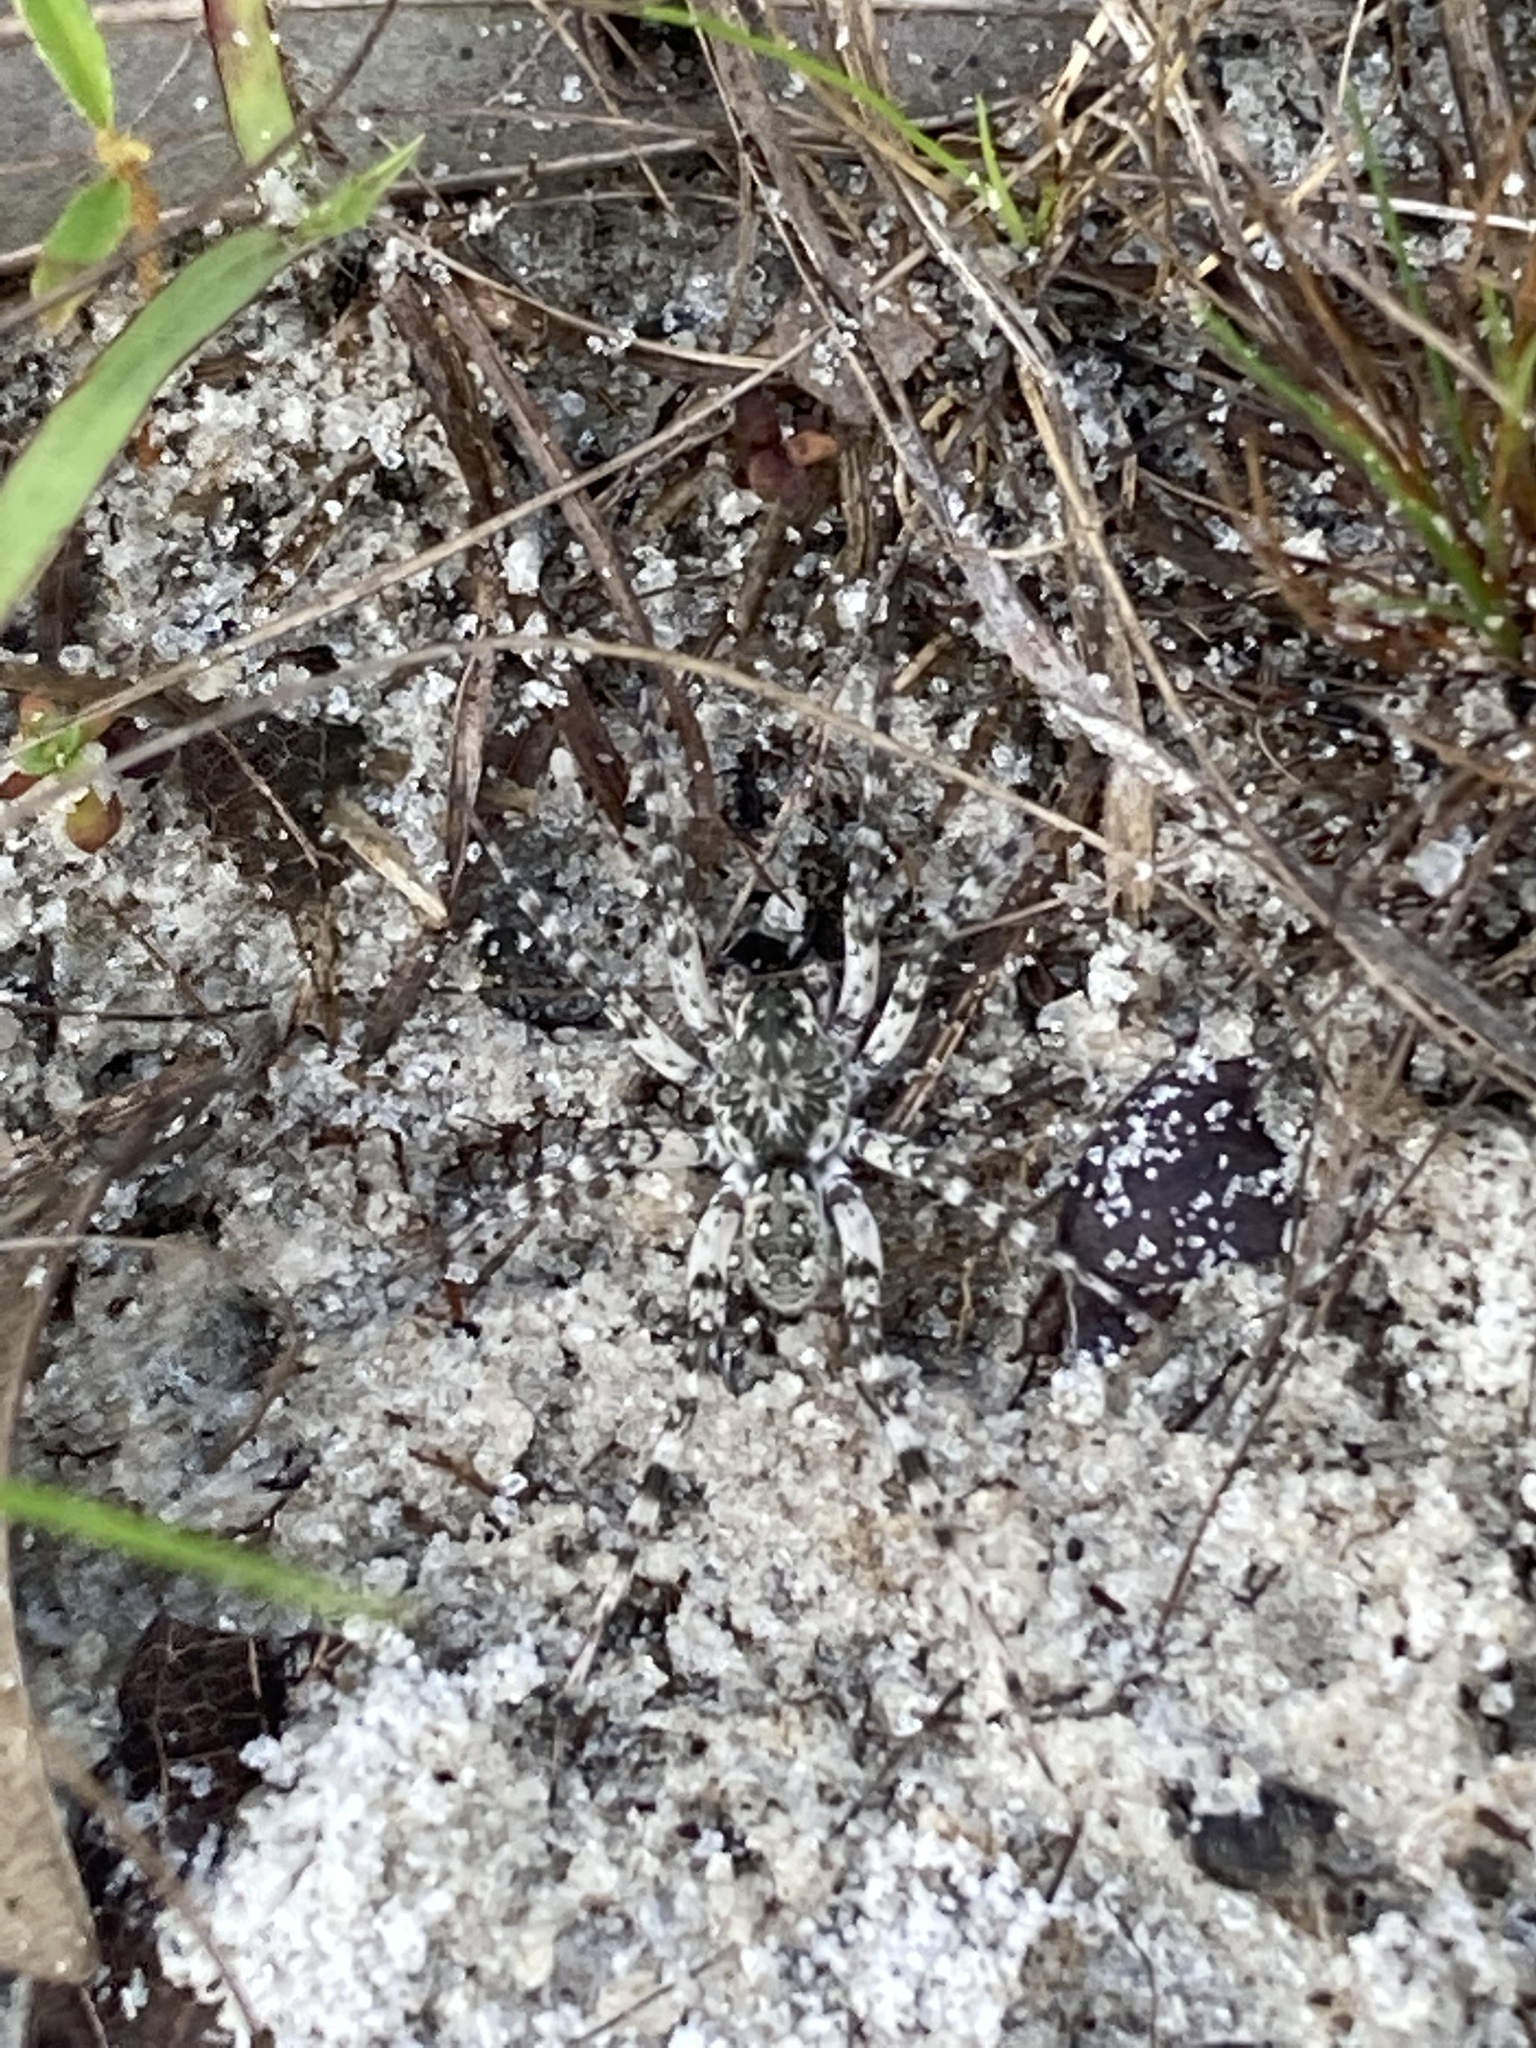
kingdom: Animalia
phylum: Arthropoda
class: Arachnida
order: Araneae
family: Lycosidae
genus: Arctosa
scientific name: Arctosa littoralis
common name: Wolf spiders
